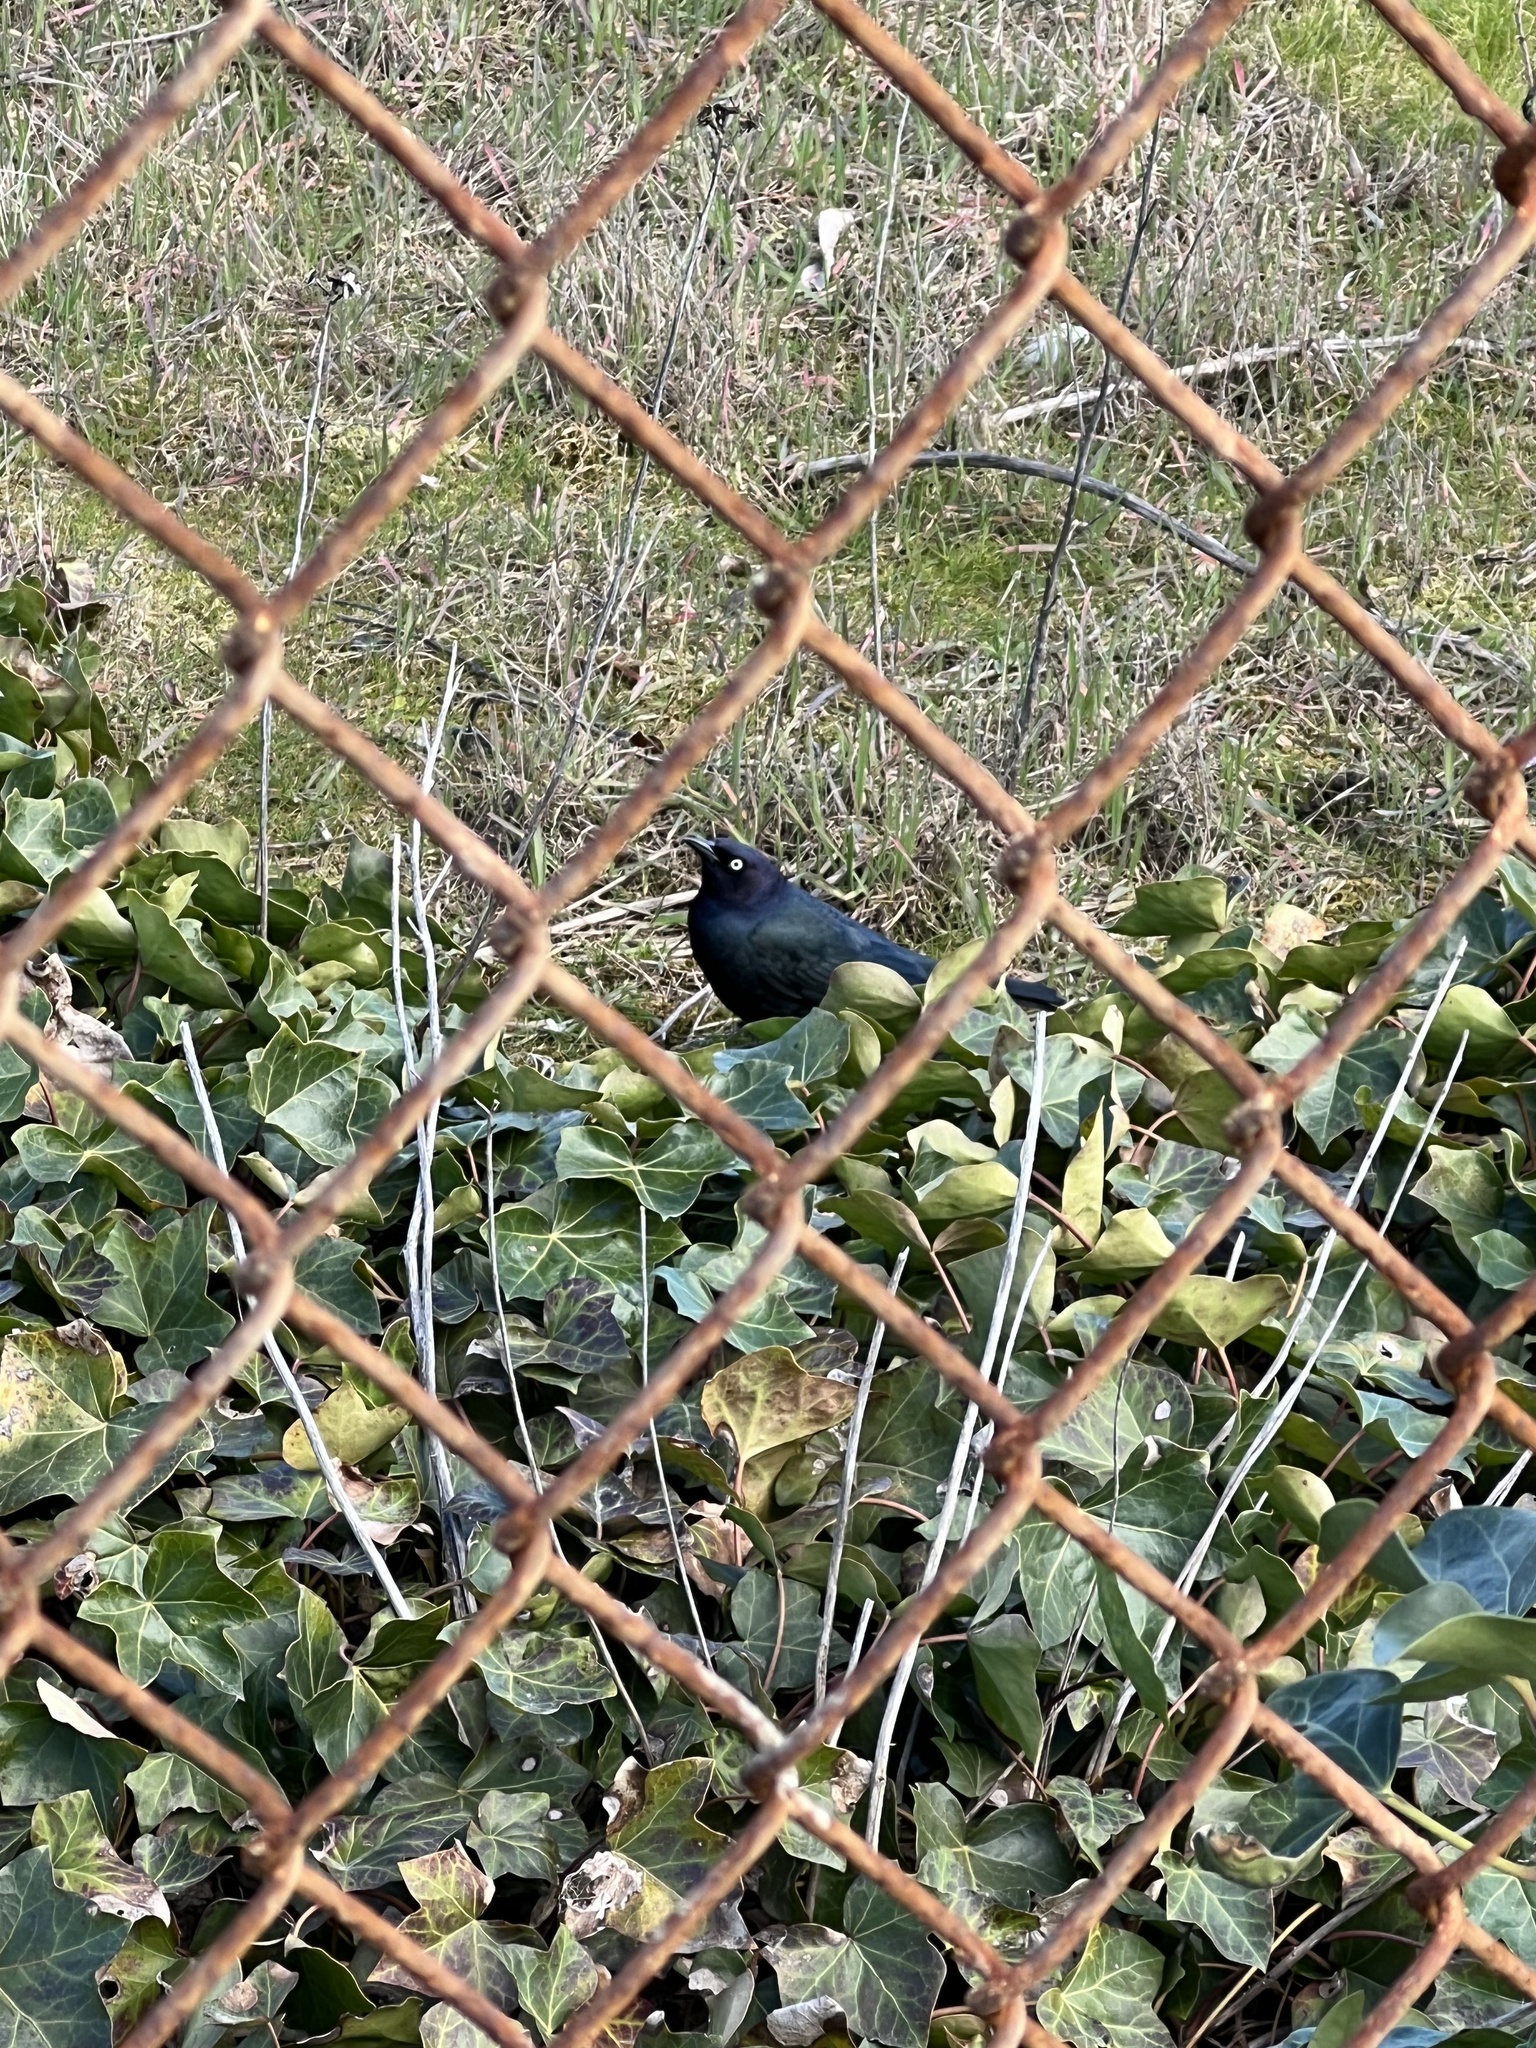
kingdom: Animalia
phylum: Chordata
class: Aves
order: Passeriformes
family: Icteridae
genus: Euphagus
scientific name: Euphagus cyanocephalus
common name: Brewer's blackbird
